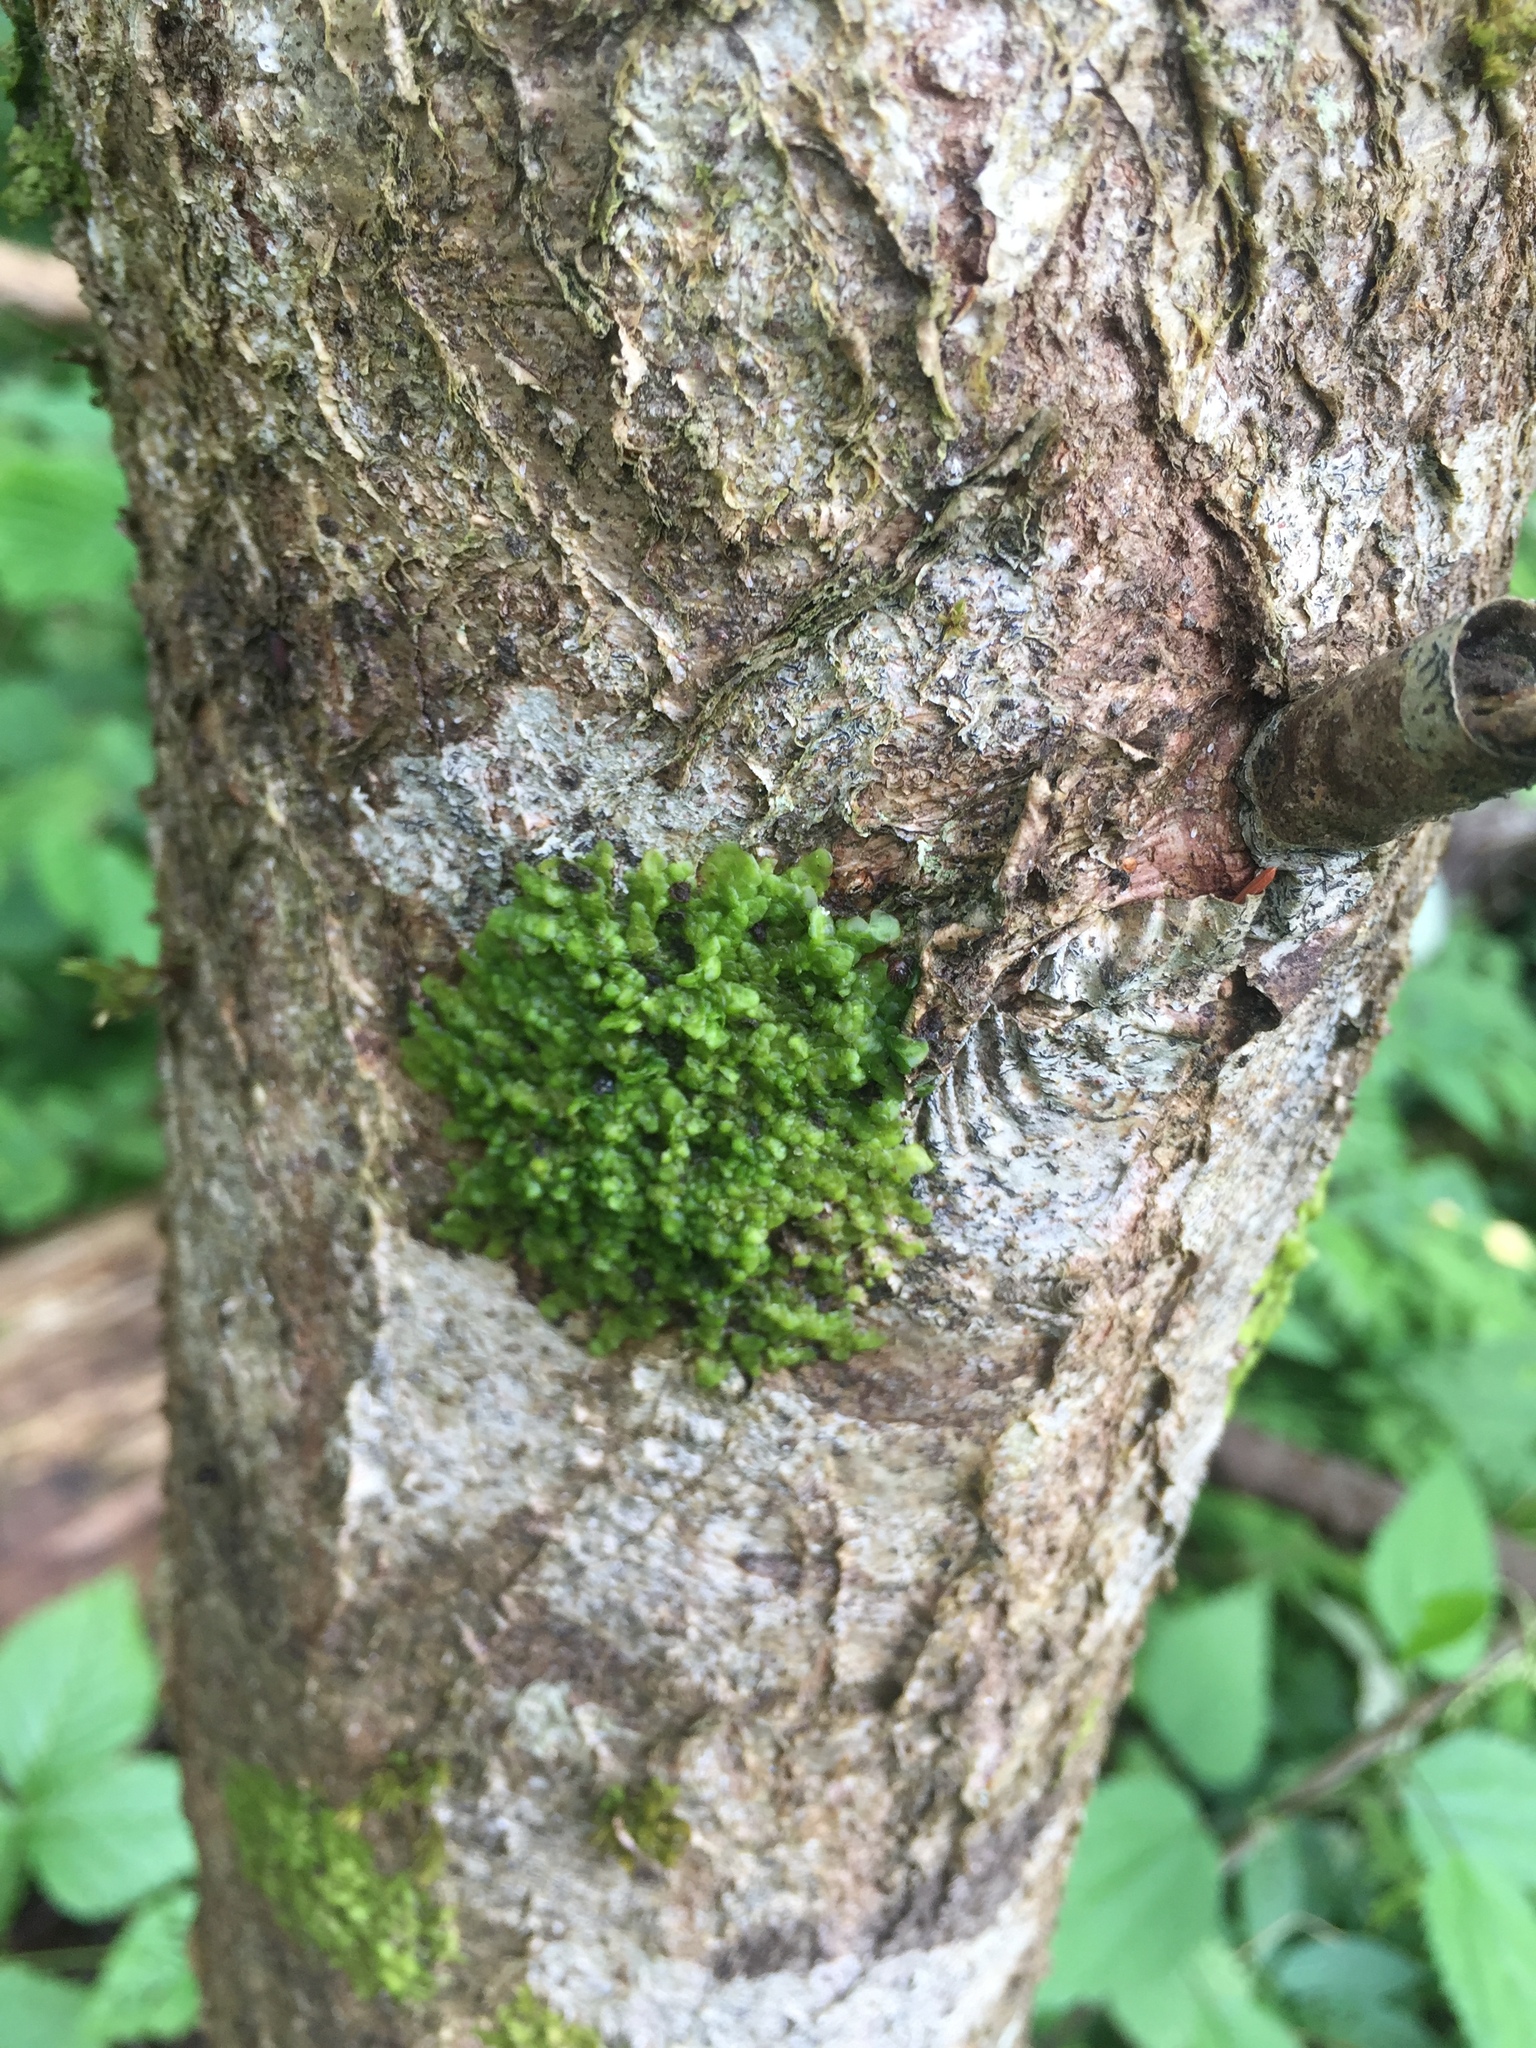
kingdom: Plantae
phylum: Marchantiophyta
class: Jungermanniopsida
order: Porellales
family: Radulaceae
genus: Radula
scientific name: Radula complanata
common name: Flat-leaved scalewort
